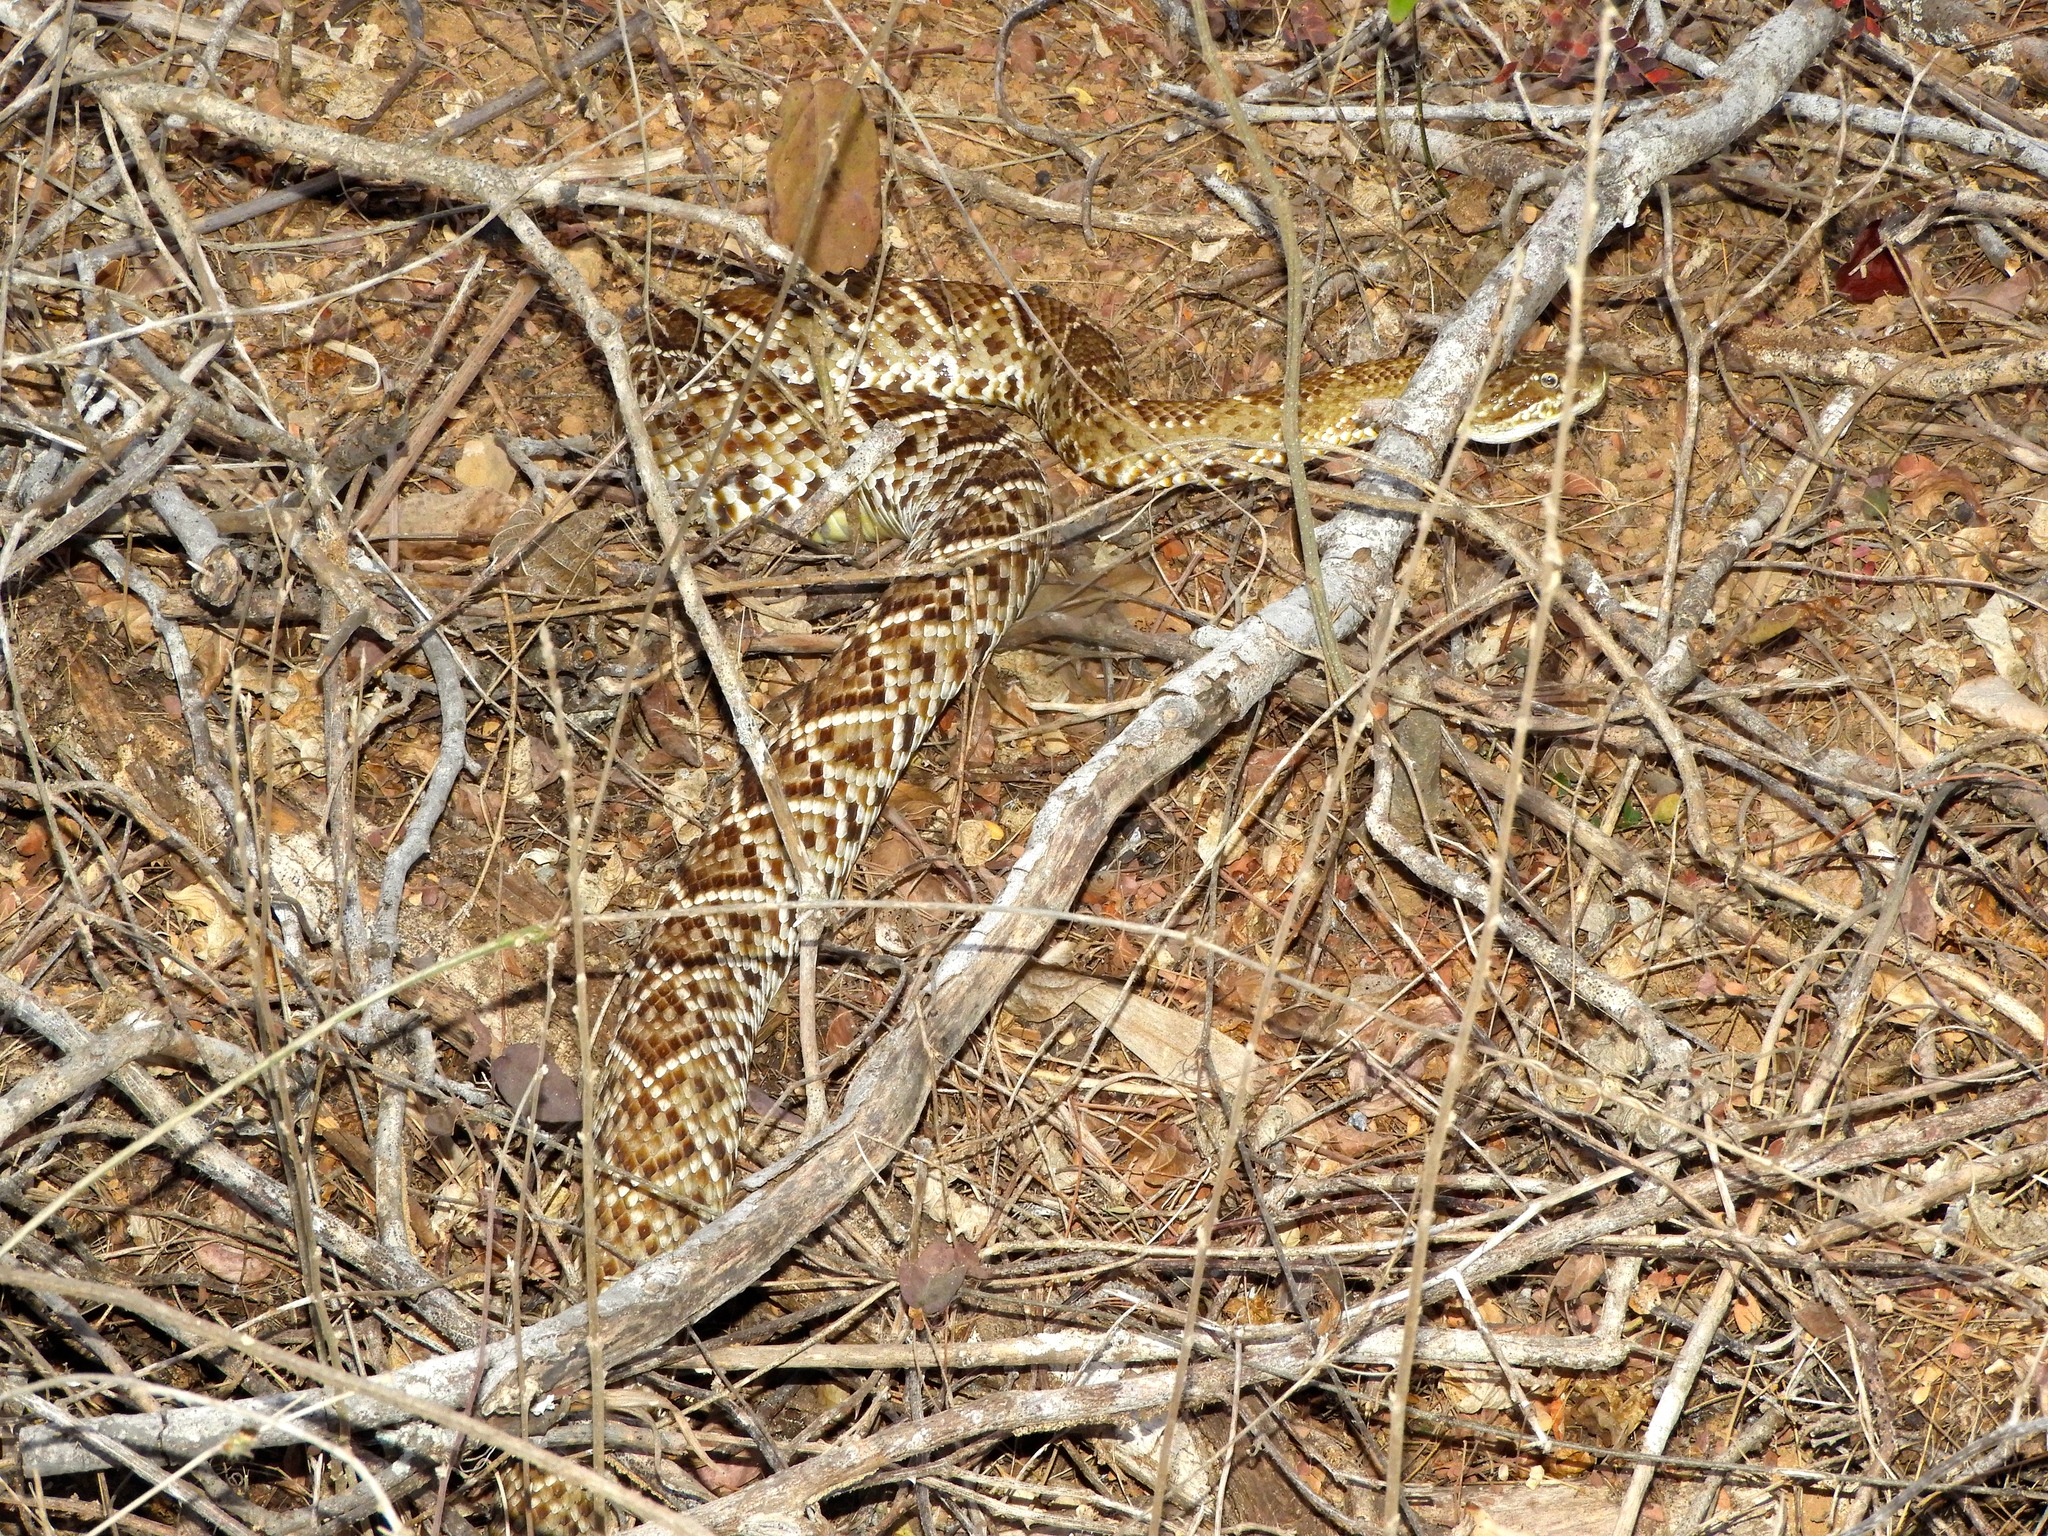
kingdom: Animalia
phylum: Chordata
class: Squamata
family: Viperidae
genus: Crotalus
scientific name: Crotalus basiliscus
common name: Basilisk rattlesnake
